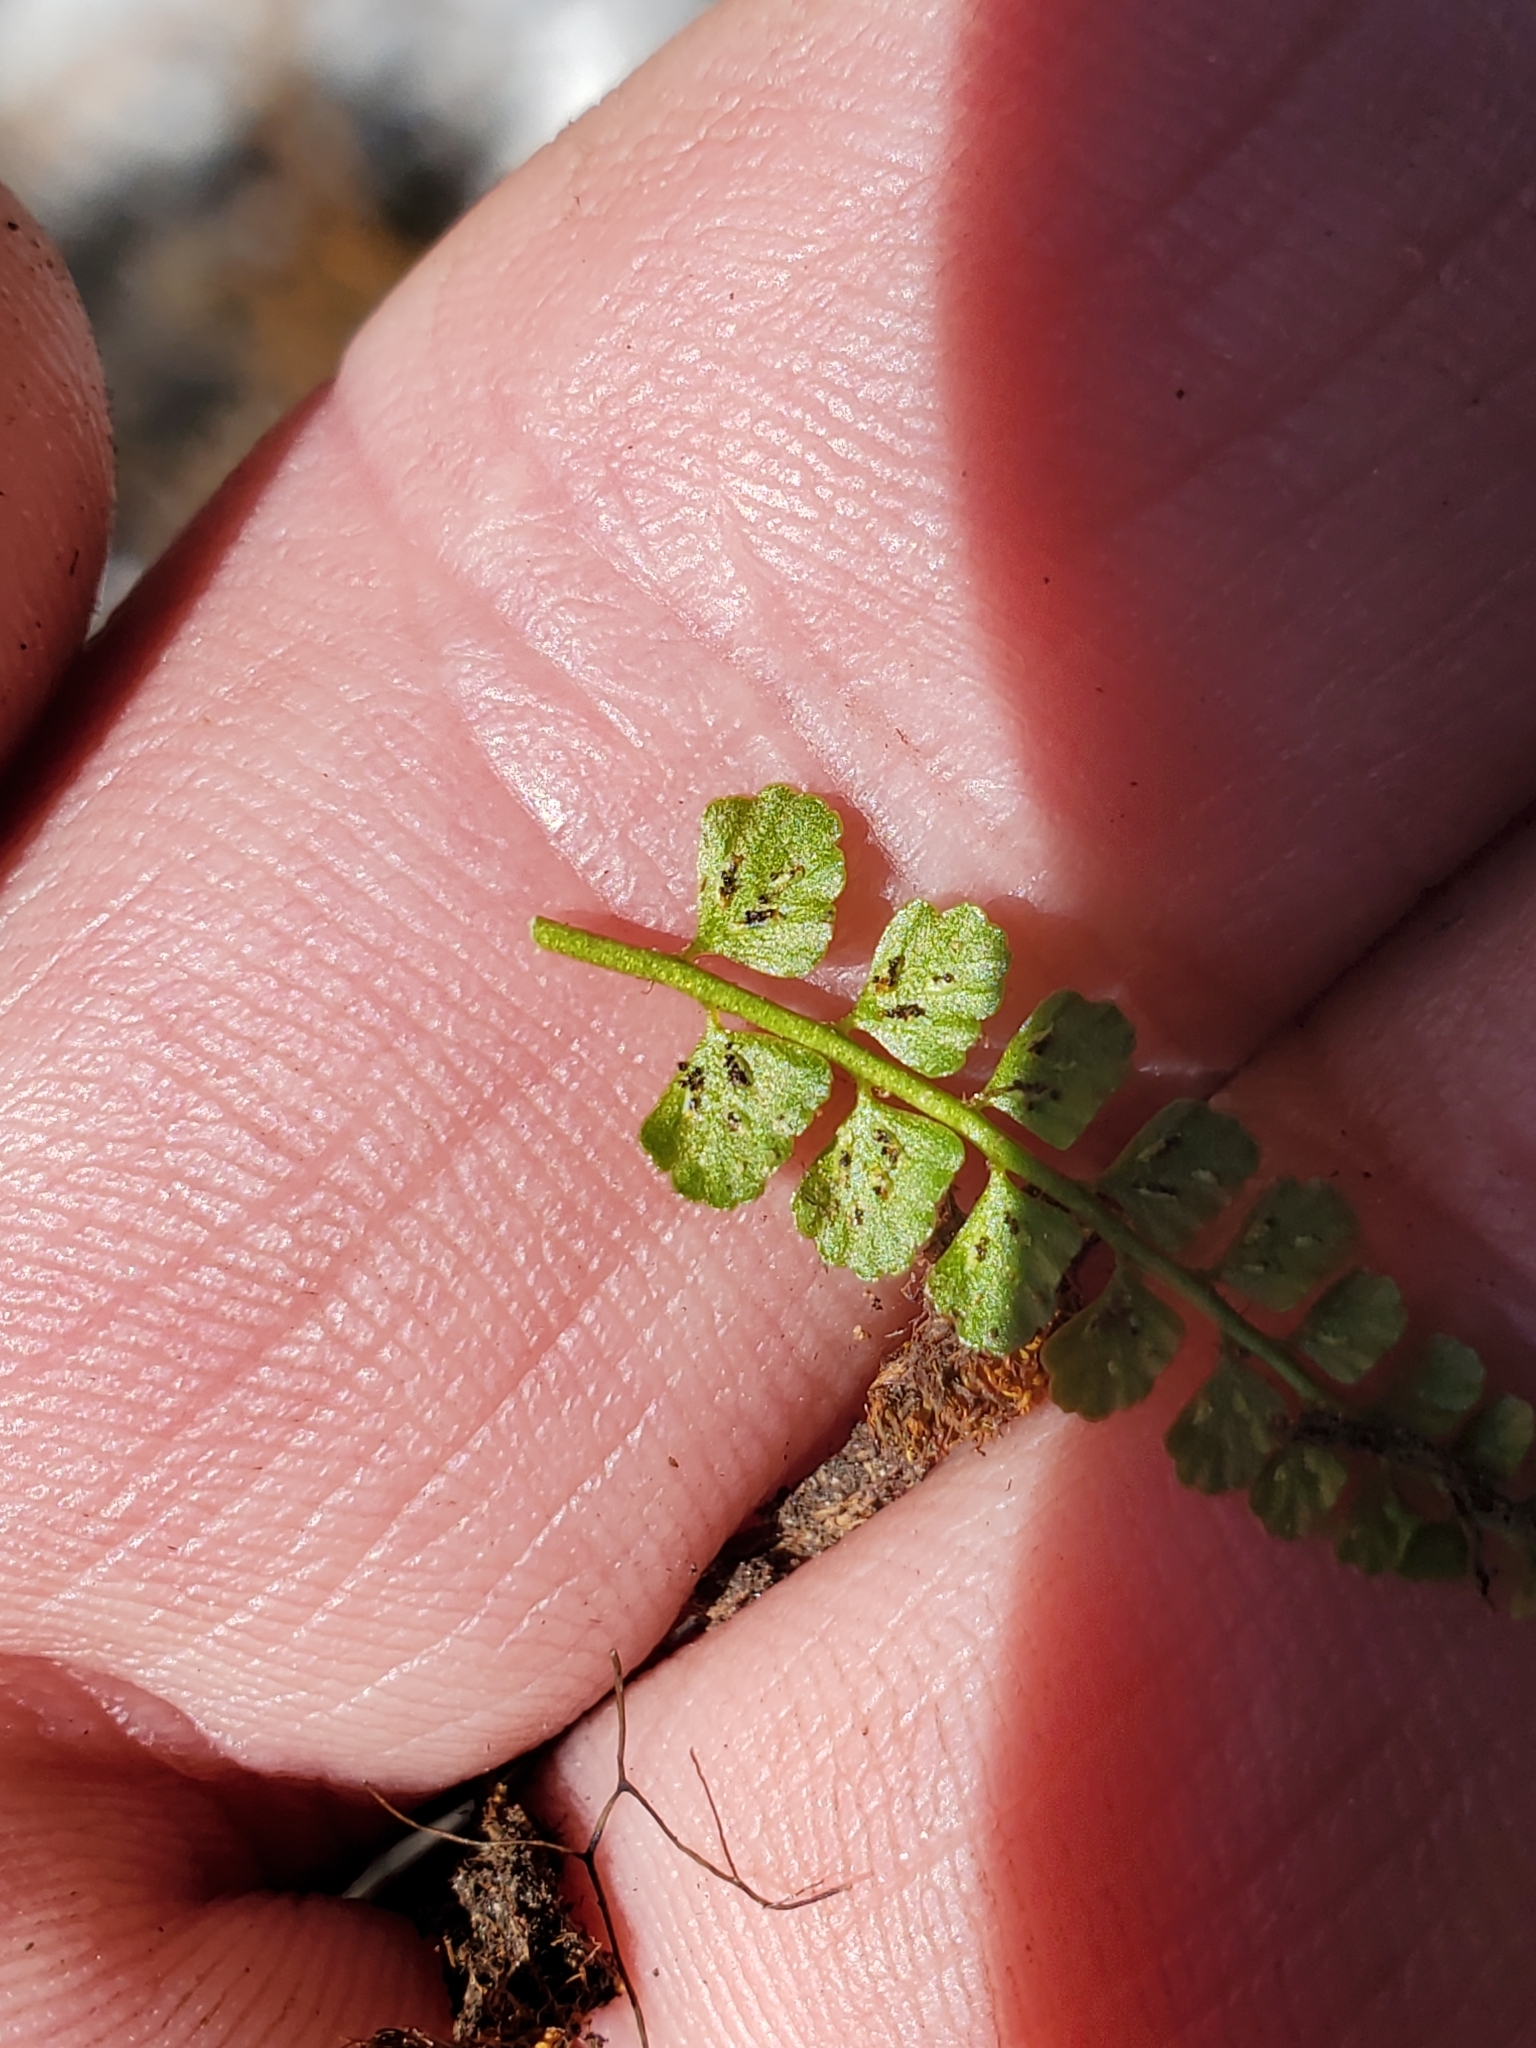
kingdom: Plantae
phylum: Tracheophyta
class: Polypodiopsida
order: Polypodiales
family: Aspleniaceae
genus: Asplenium
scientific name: Asplenium viride
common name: Green spleenwort
